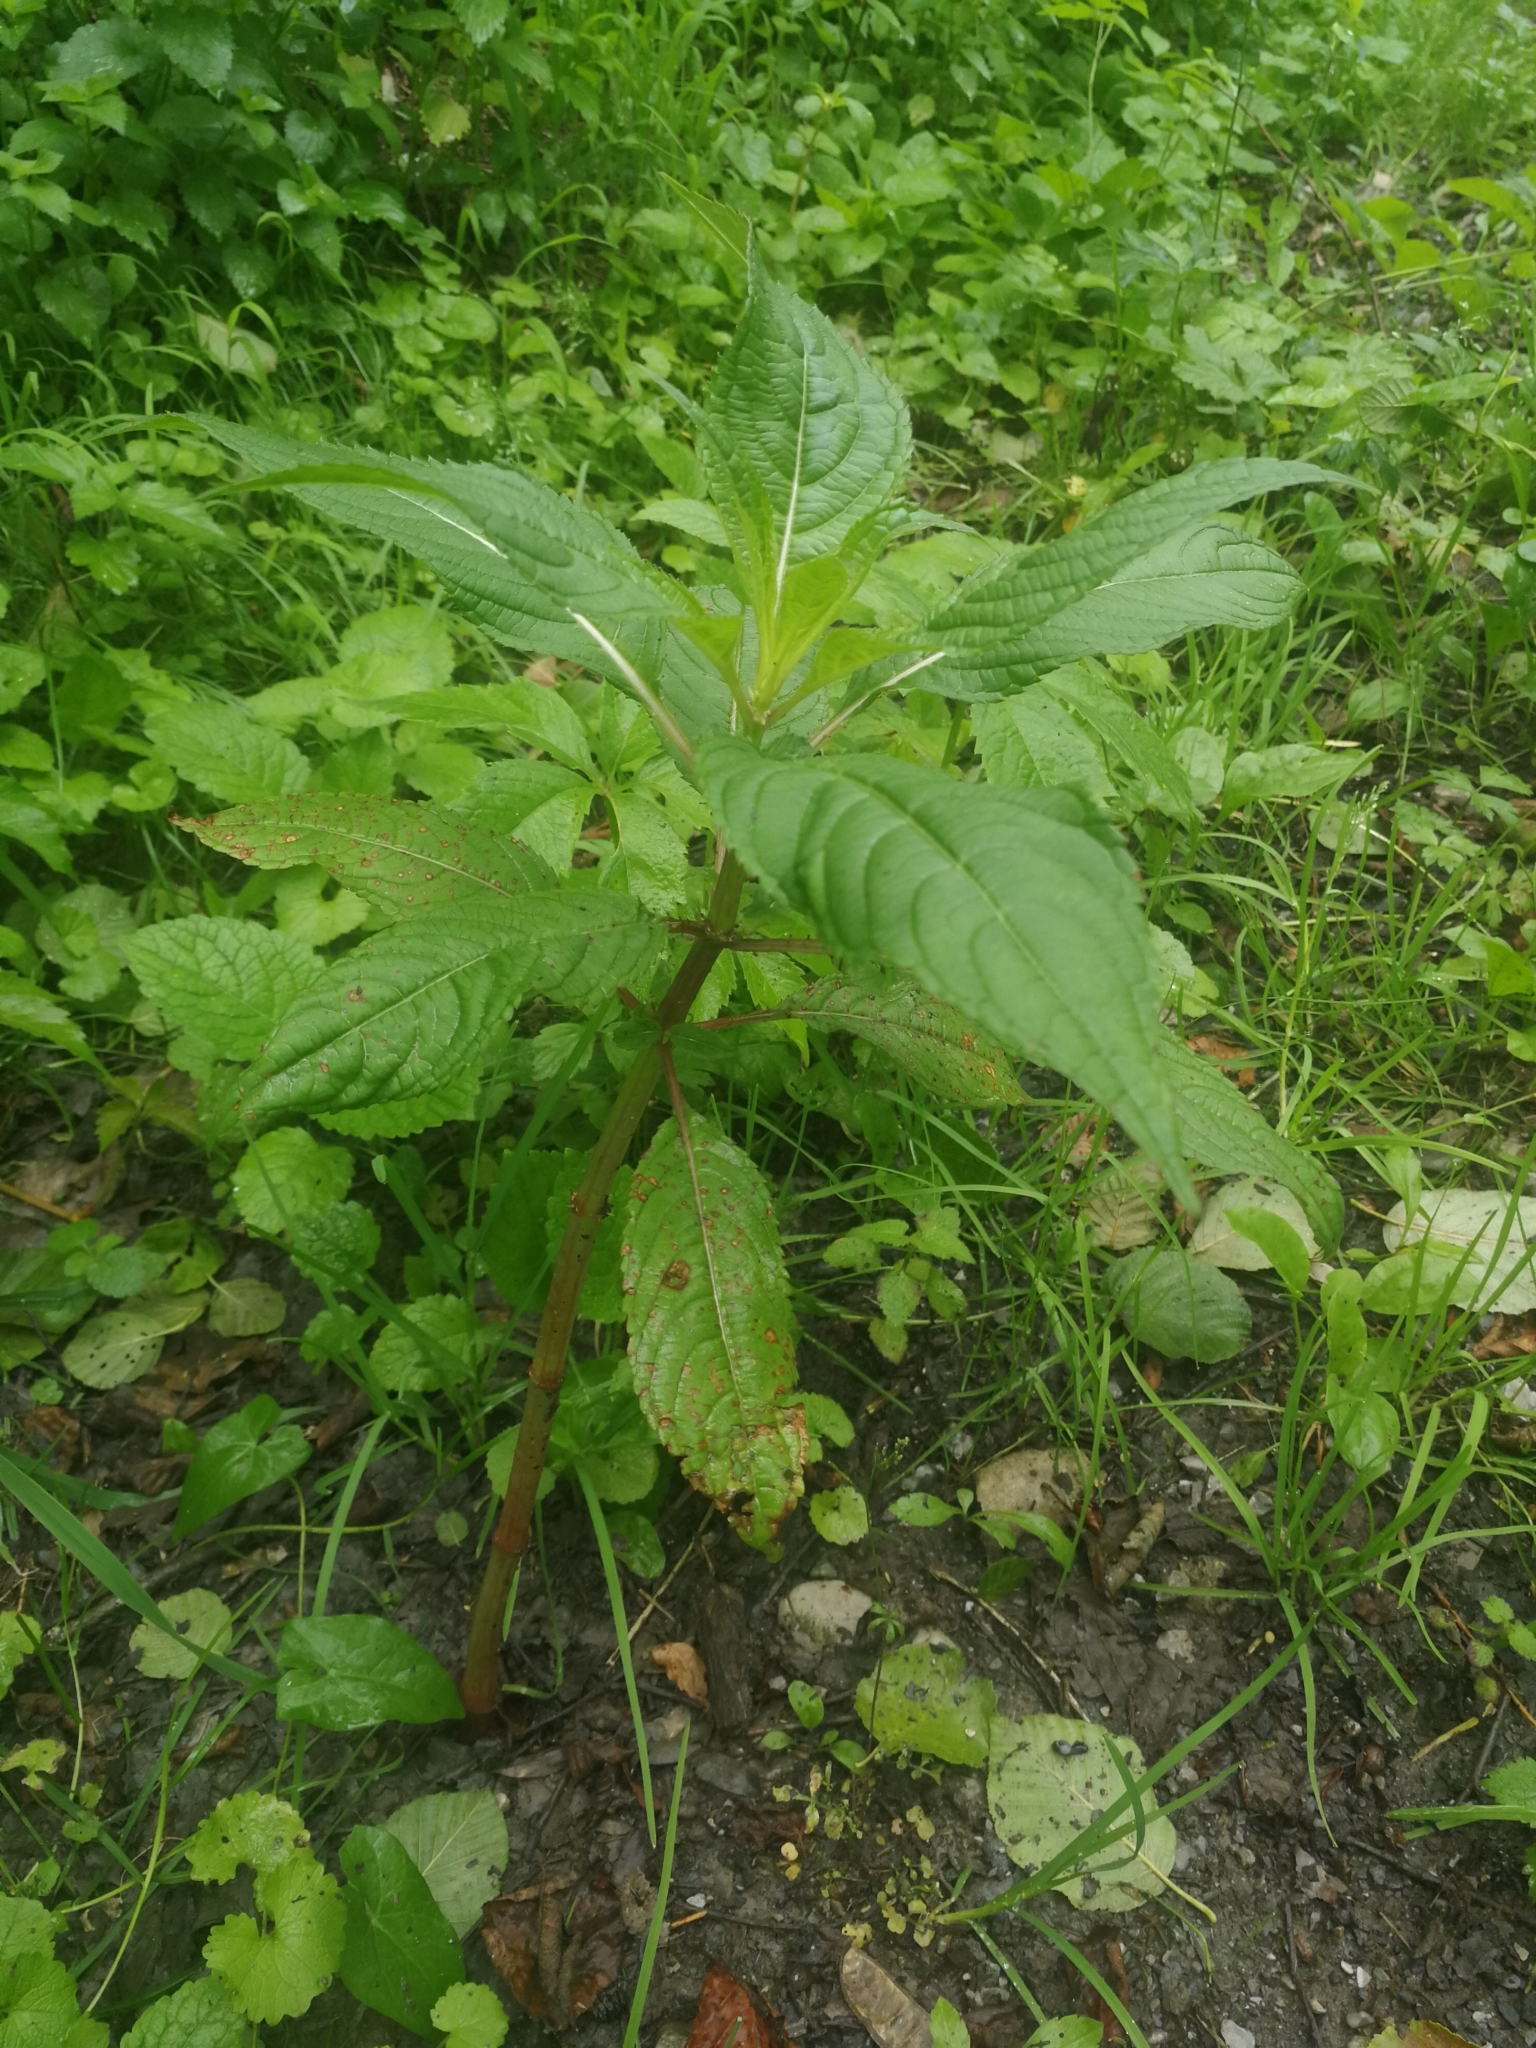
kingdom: Plantae
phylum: Tracheophyta
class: Magnoliopsida
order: Ericales
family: Balsaminaceae
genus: Impatiens
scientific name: Impatiens glandulifera
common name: Himalayan balsam
